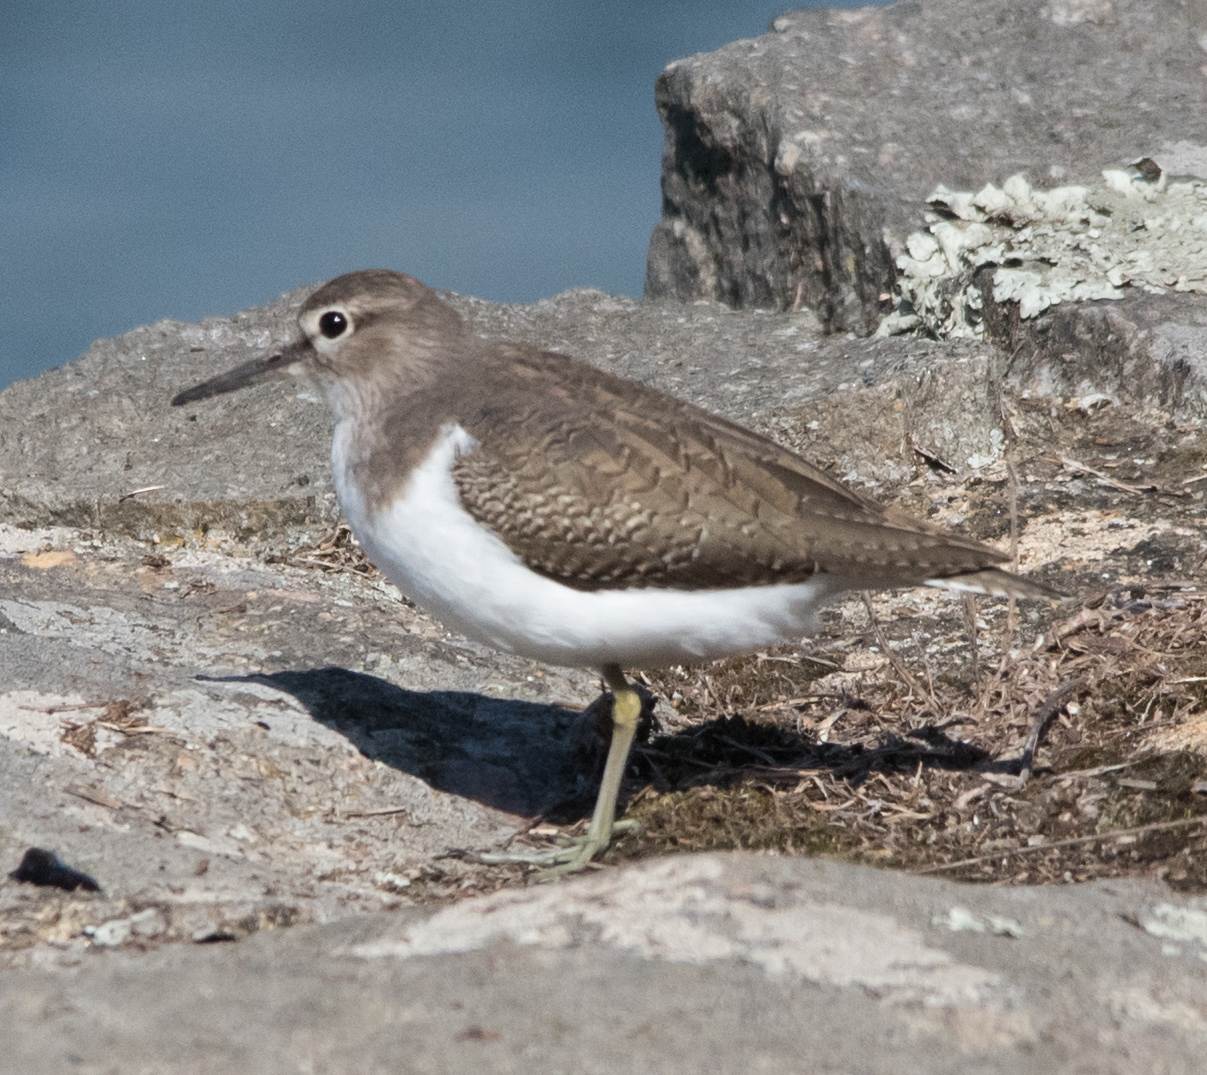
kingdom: Animalia
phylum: Chordata
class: Aves
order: Charadriiformes
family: Scolopacidae
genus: Actitis
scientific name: Actitis hypoleucos
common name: Common sandpiper
